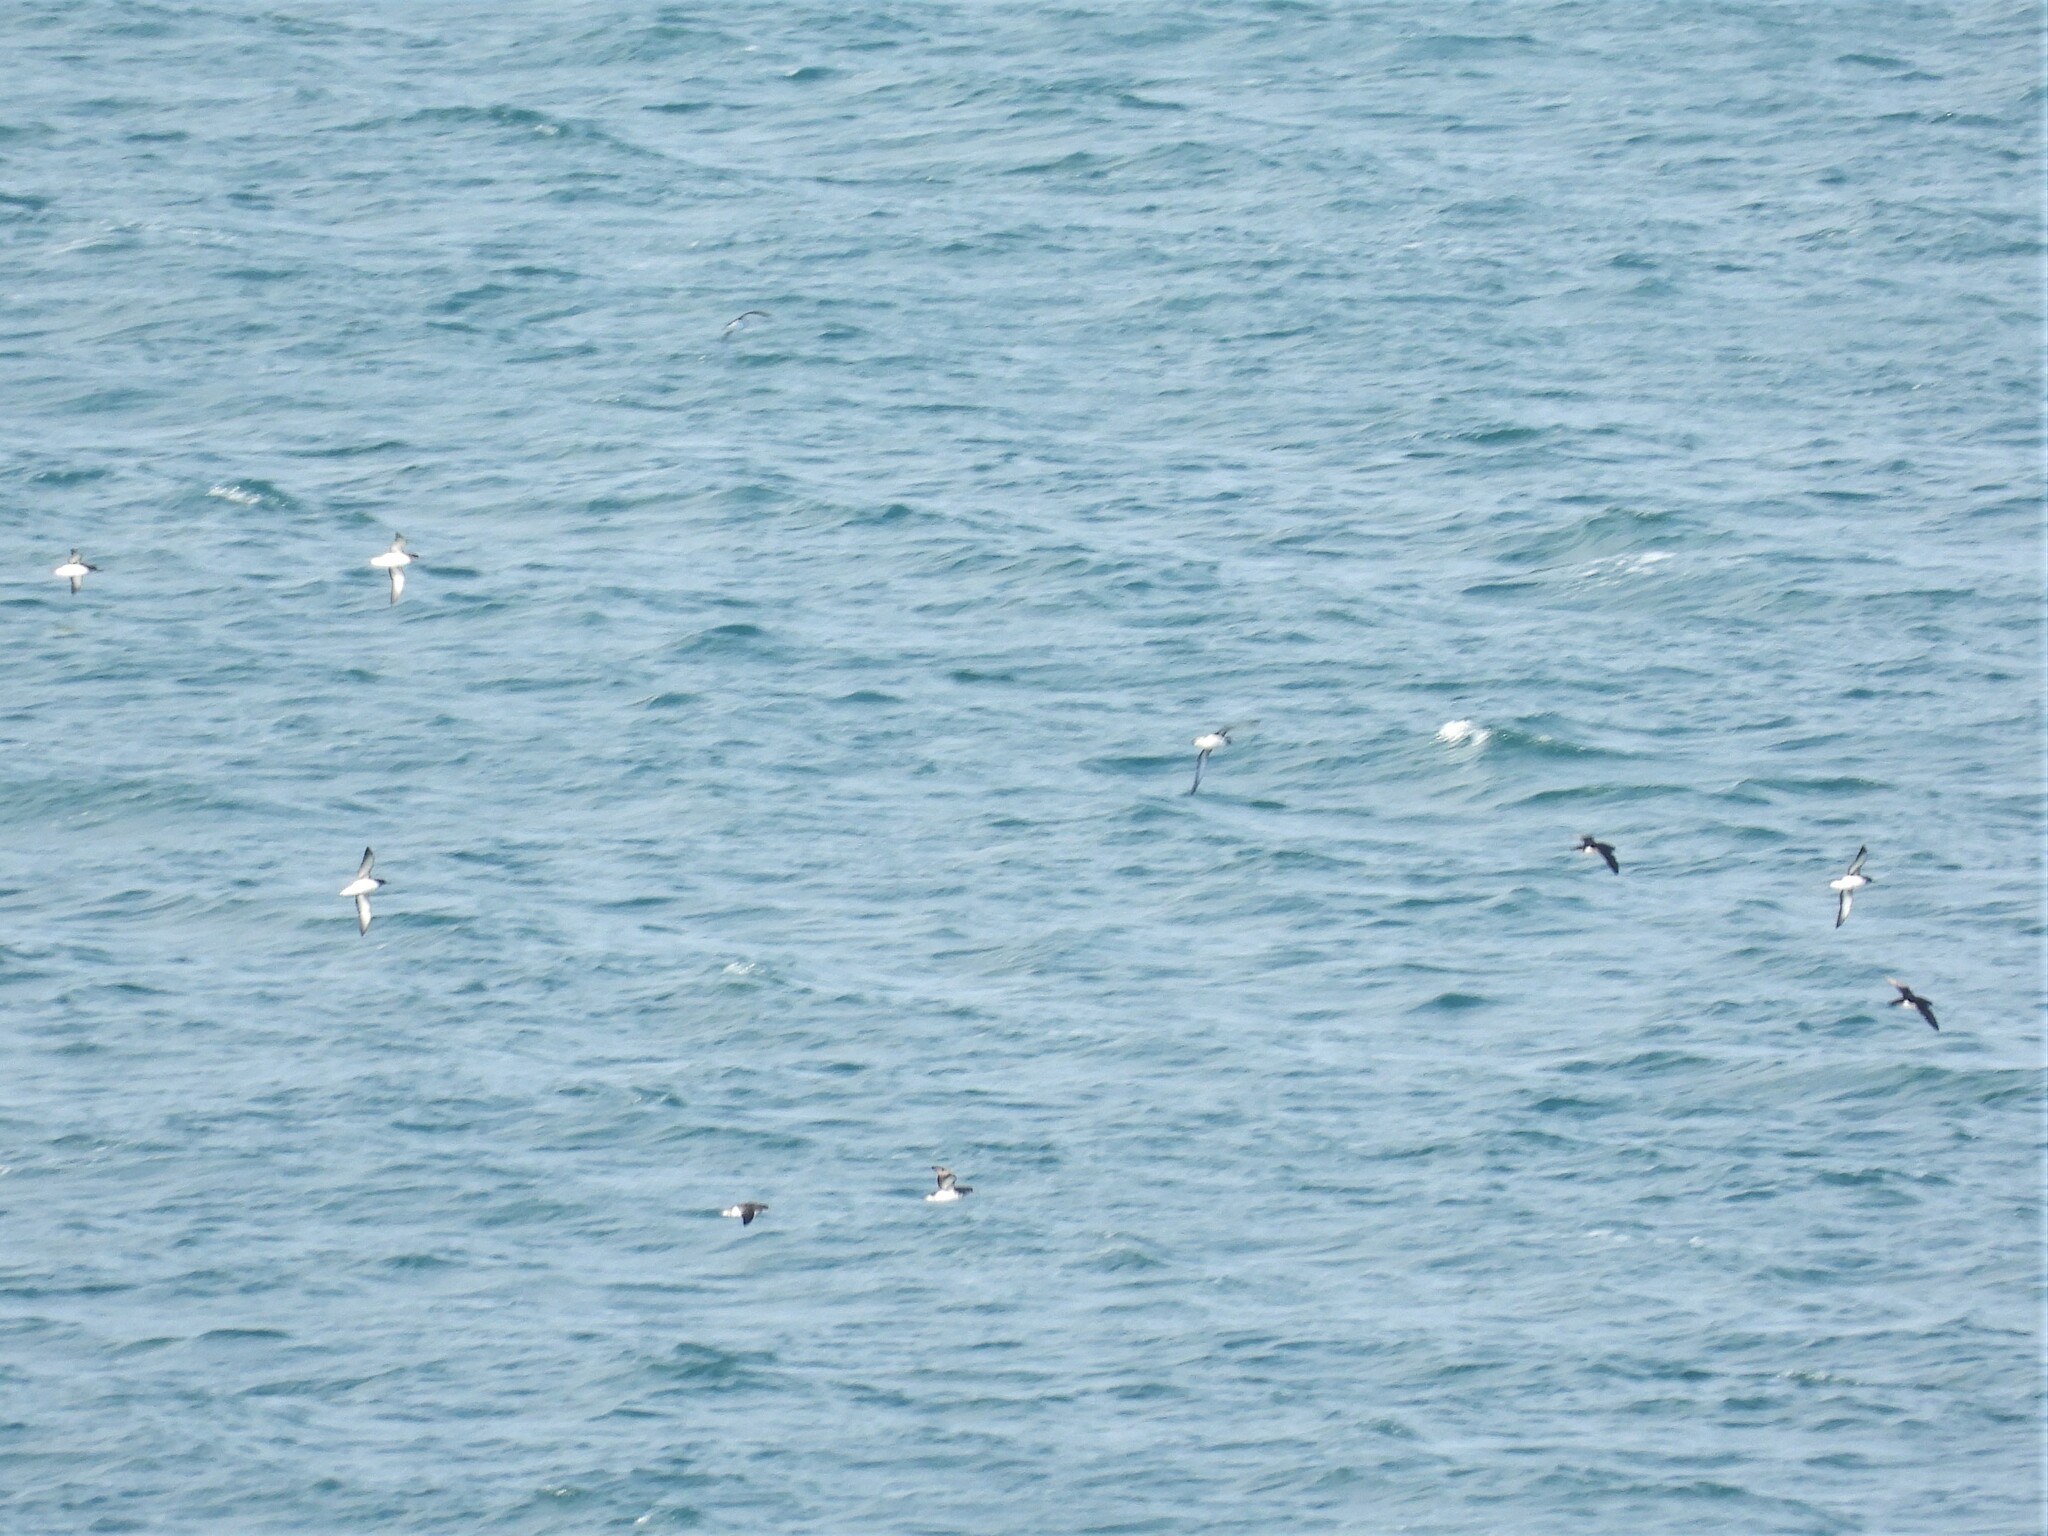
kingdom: Animalia
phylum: Chordata
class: Aves
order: Procellariiformes
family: Procellariidae
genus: Puffinus
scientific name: Puffinus gavia
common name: Fluttering shearwater
